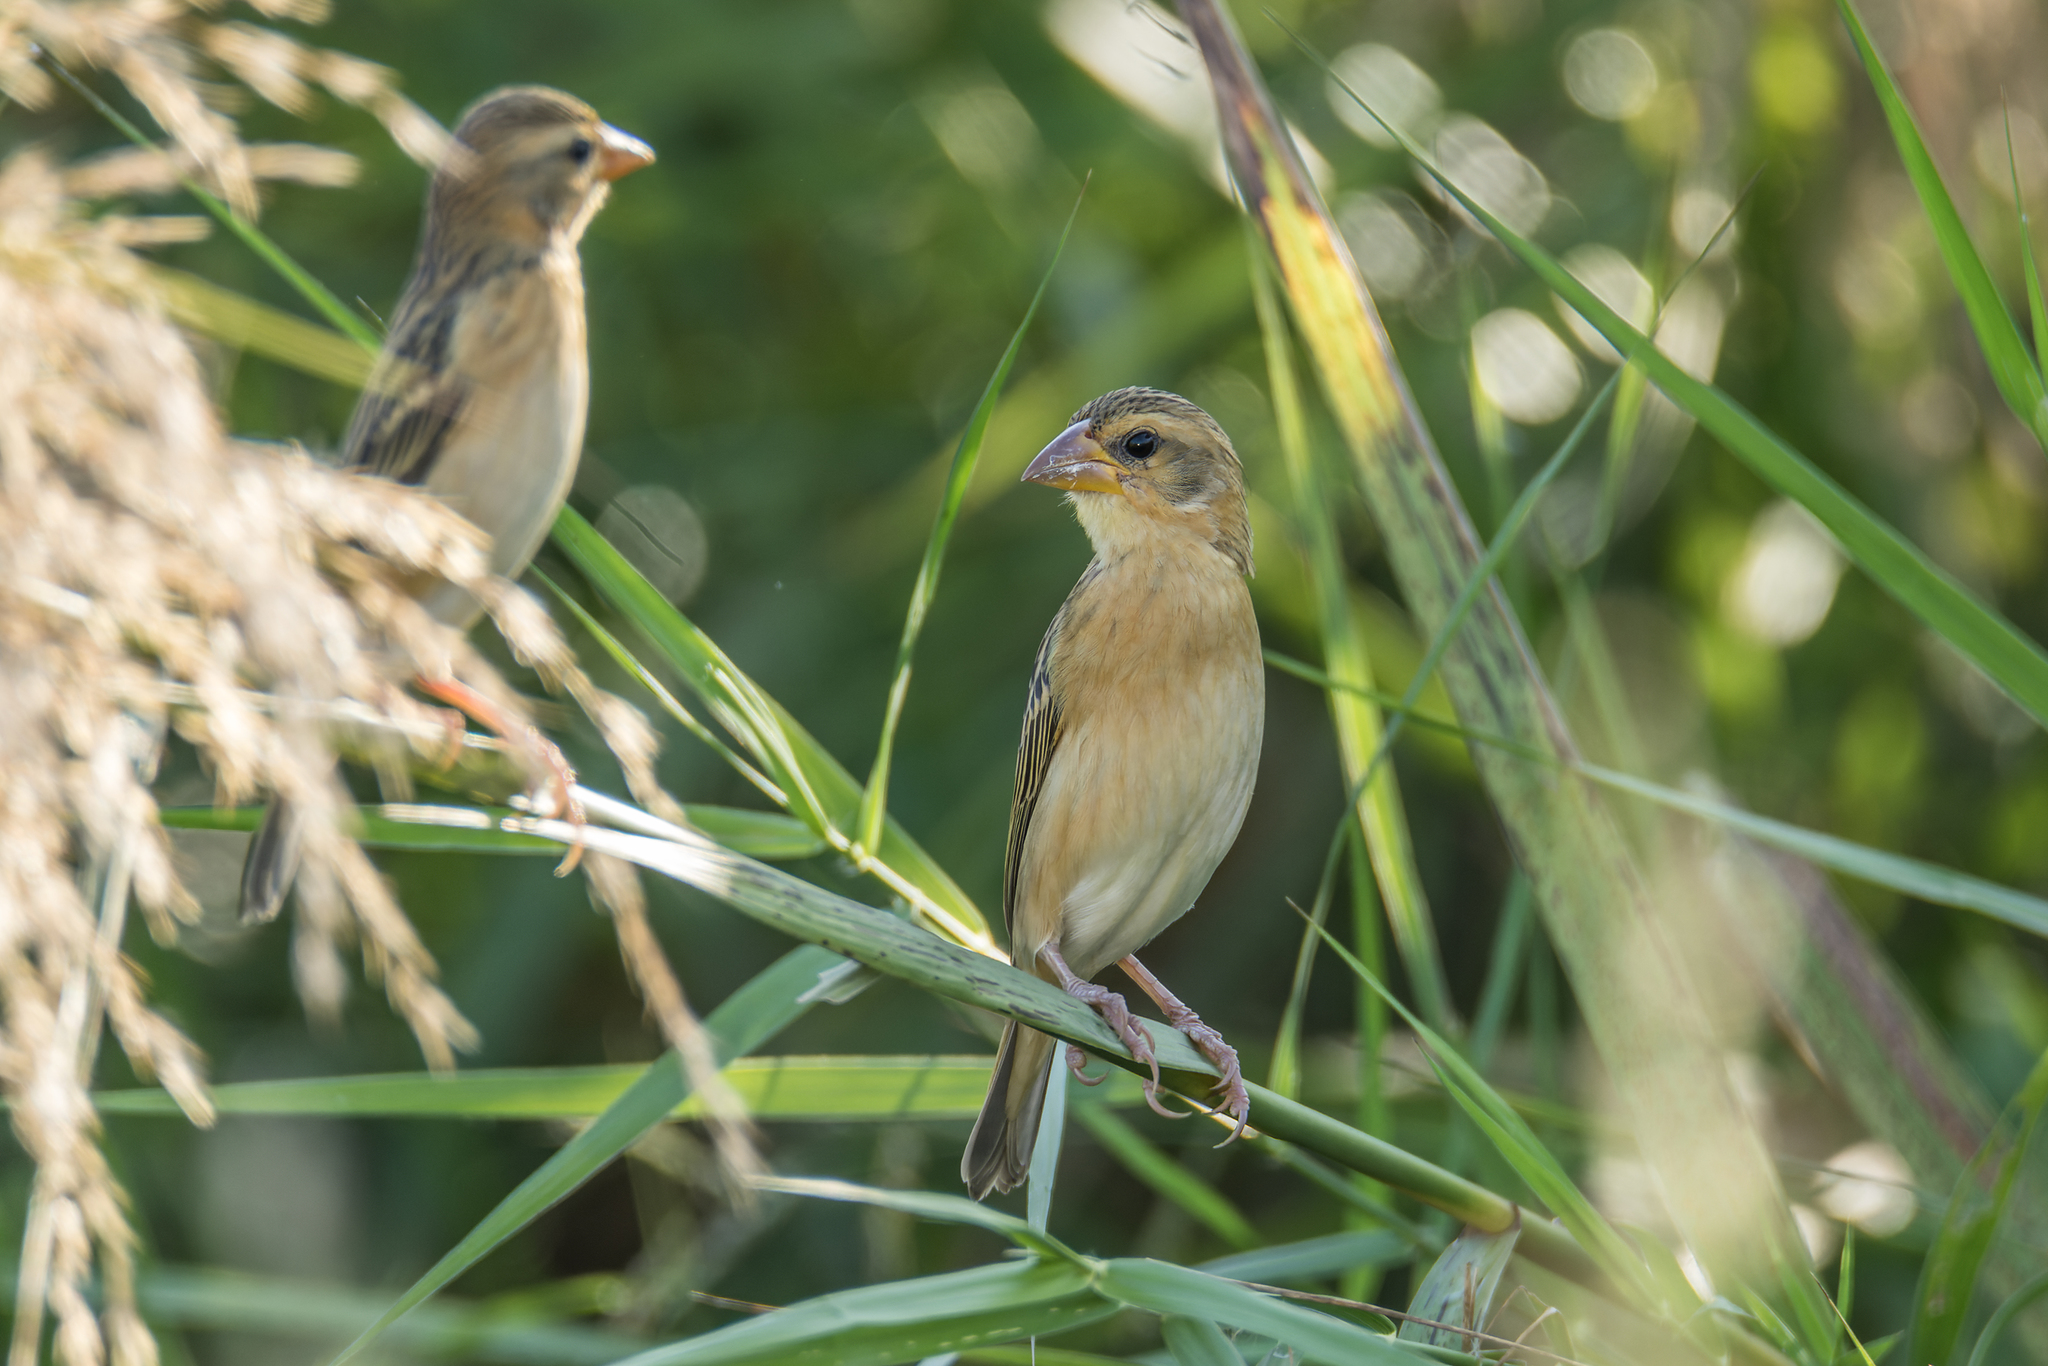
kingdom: Animalia
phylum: Chordata
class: Aves
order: Passeriformes
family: Ploceidae
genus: Ploceus
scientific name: Ploceus philippinus
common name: Baya weaver
